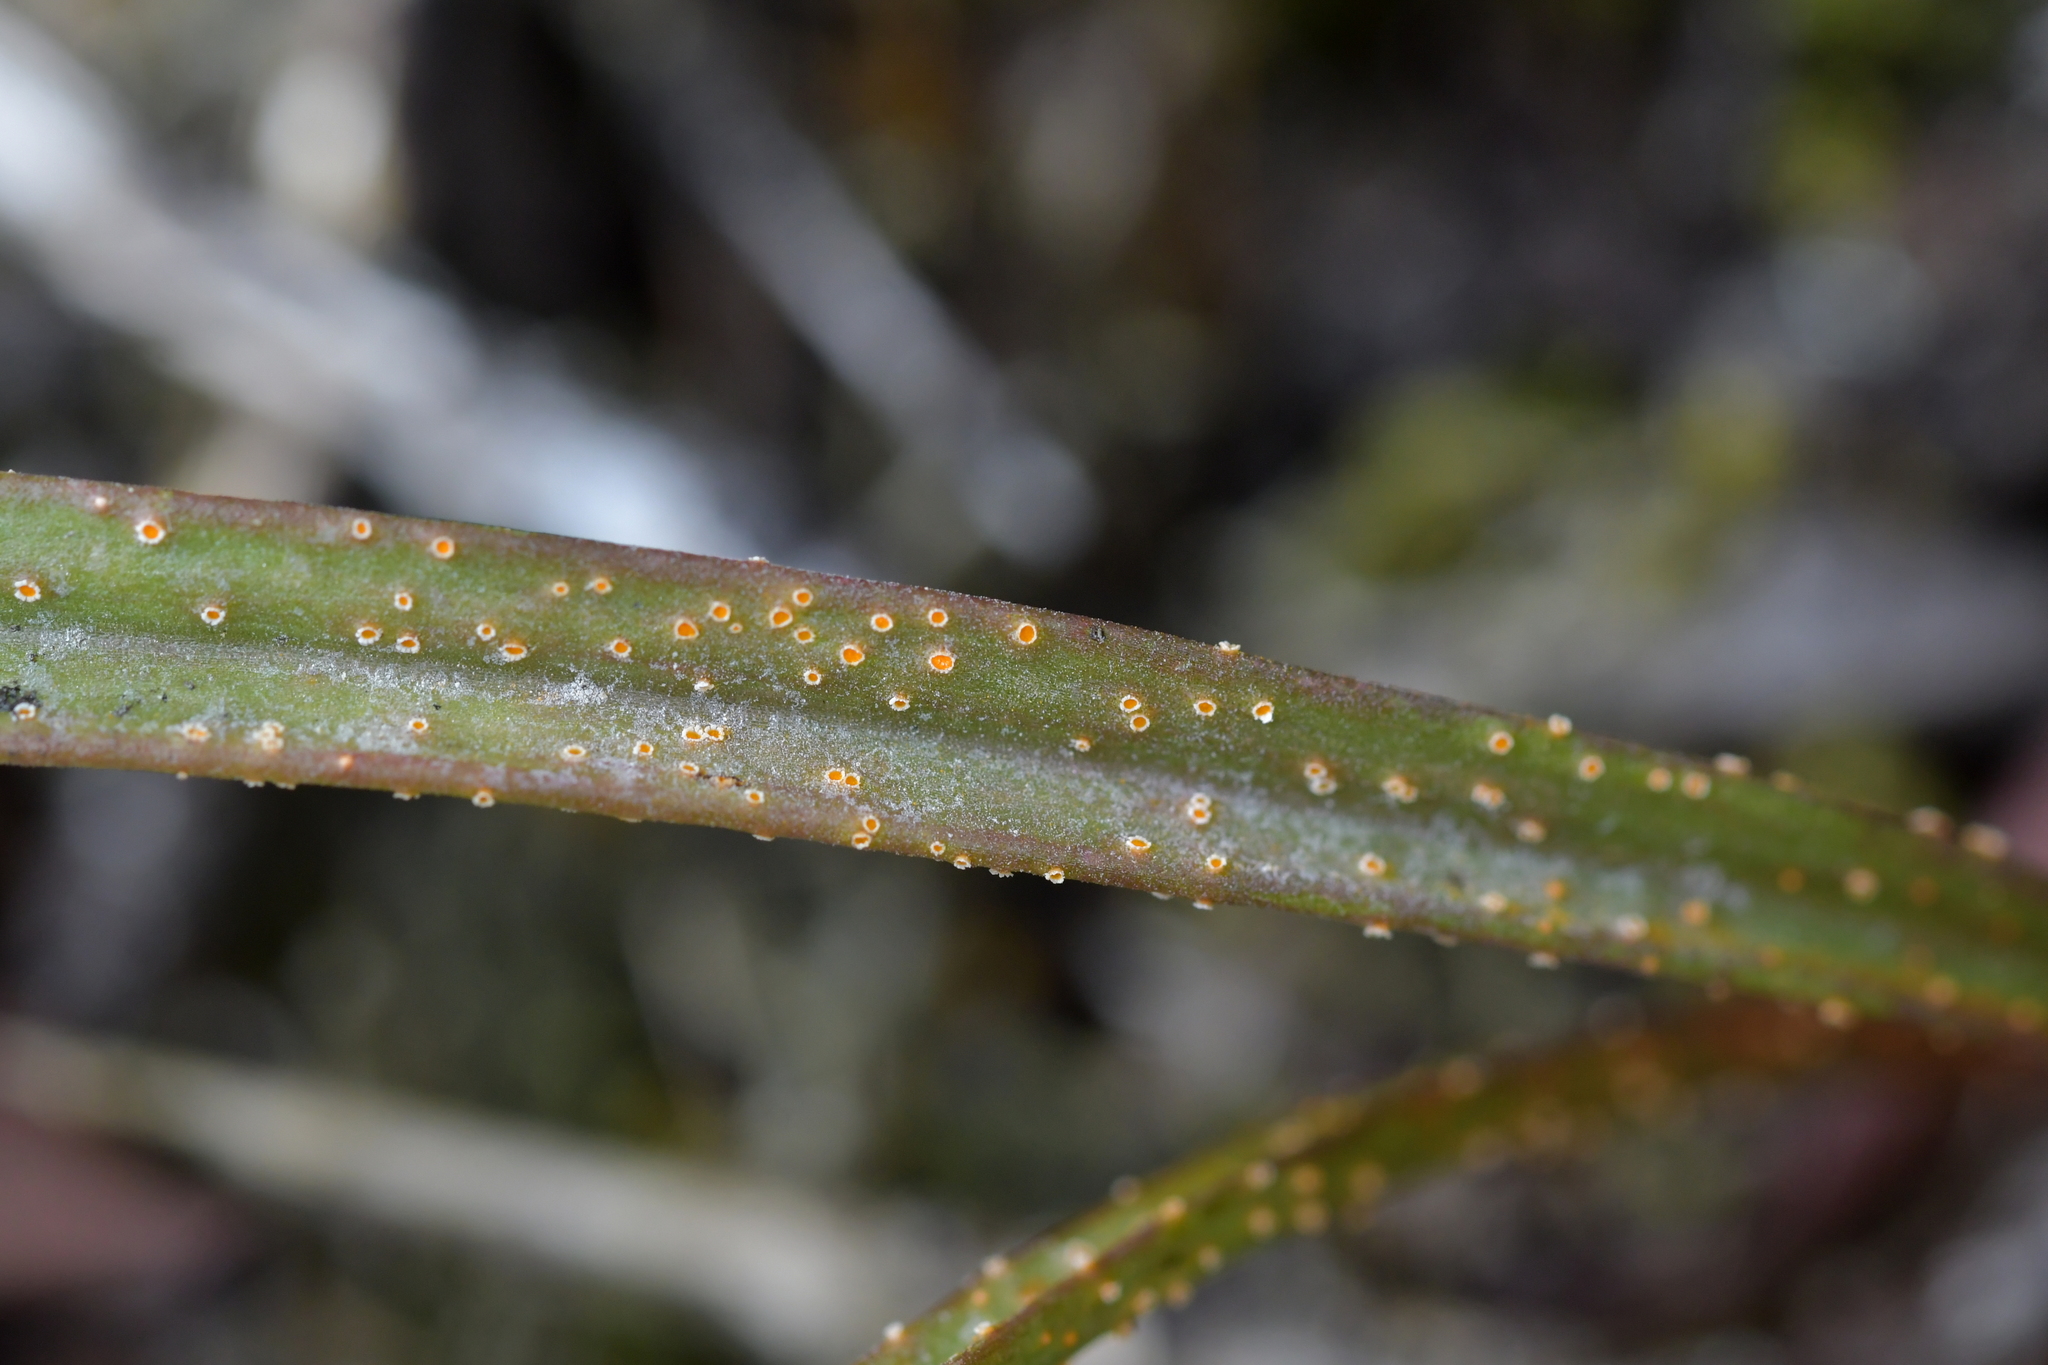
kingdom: Fungi
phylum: Basidiomycota
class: Pucciniomycetes
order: Pucciniales
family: Pucciniaceae
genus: Uromyces
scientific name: Uromyces thelymitrae
